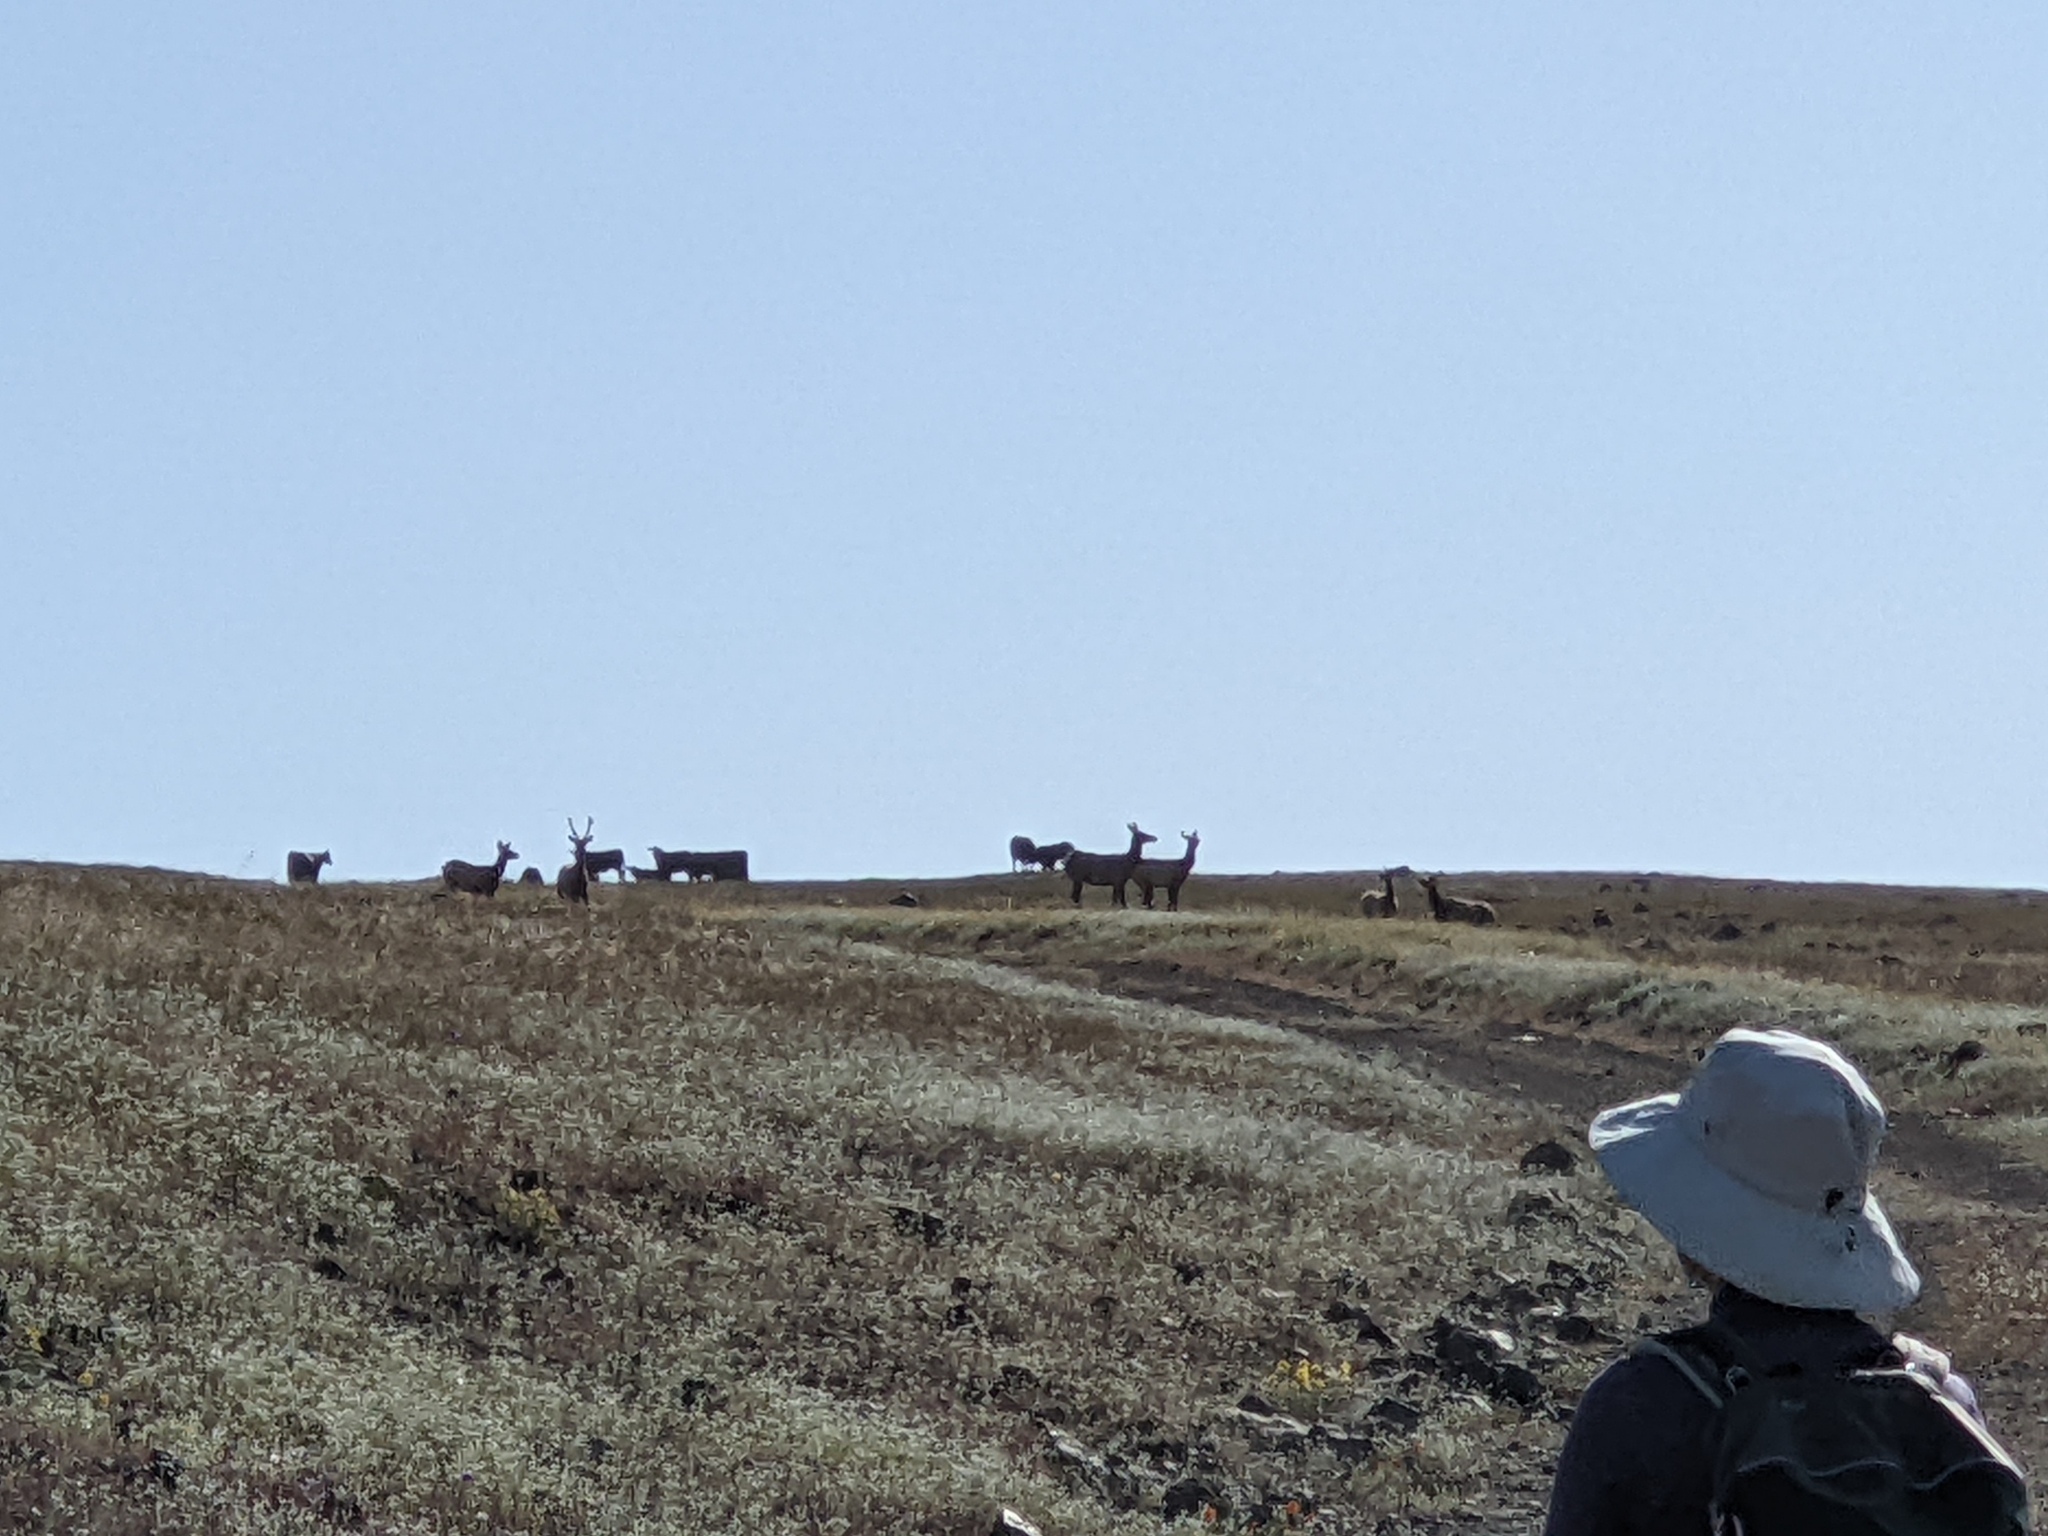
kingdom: Animalia
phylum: Chordata
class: Mammalia
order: Artiodactyla
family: Cervidae
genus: Cervus
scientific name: Cervus elaphus
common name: Red deer
